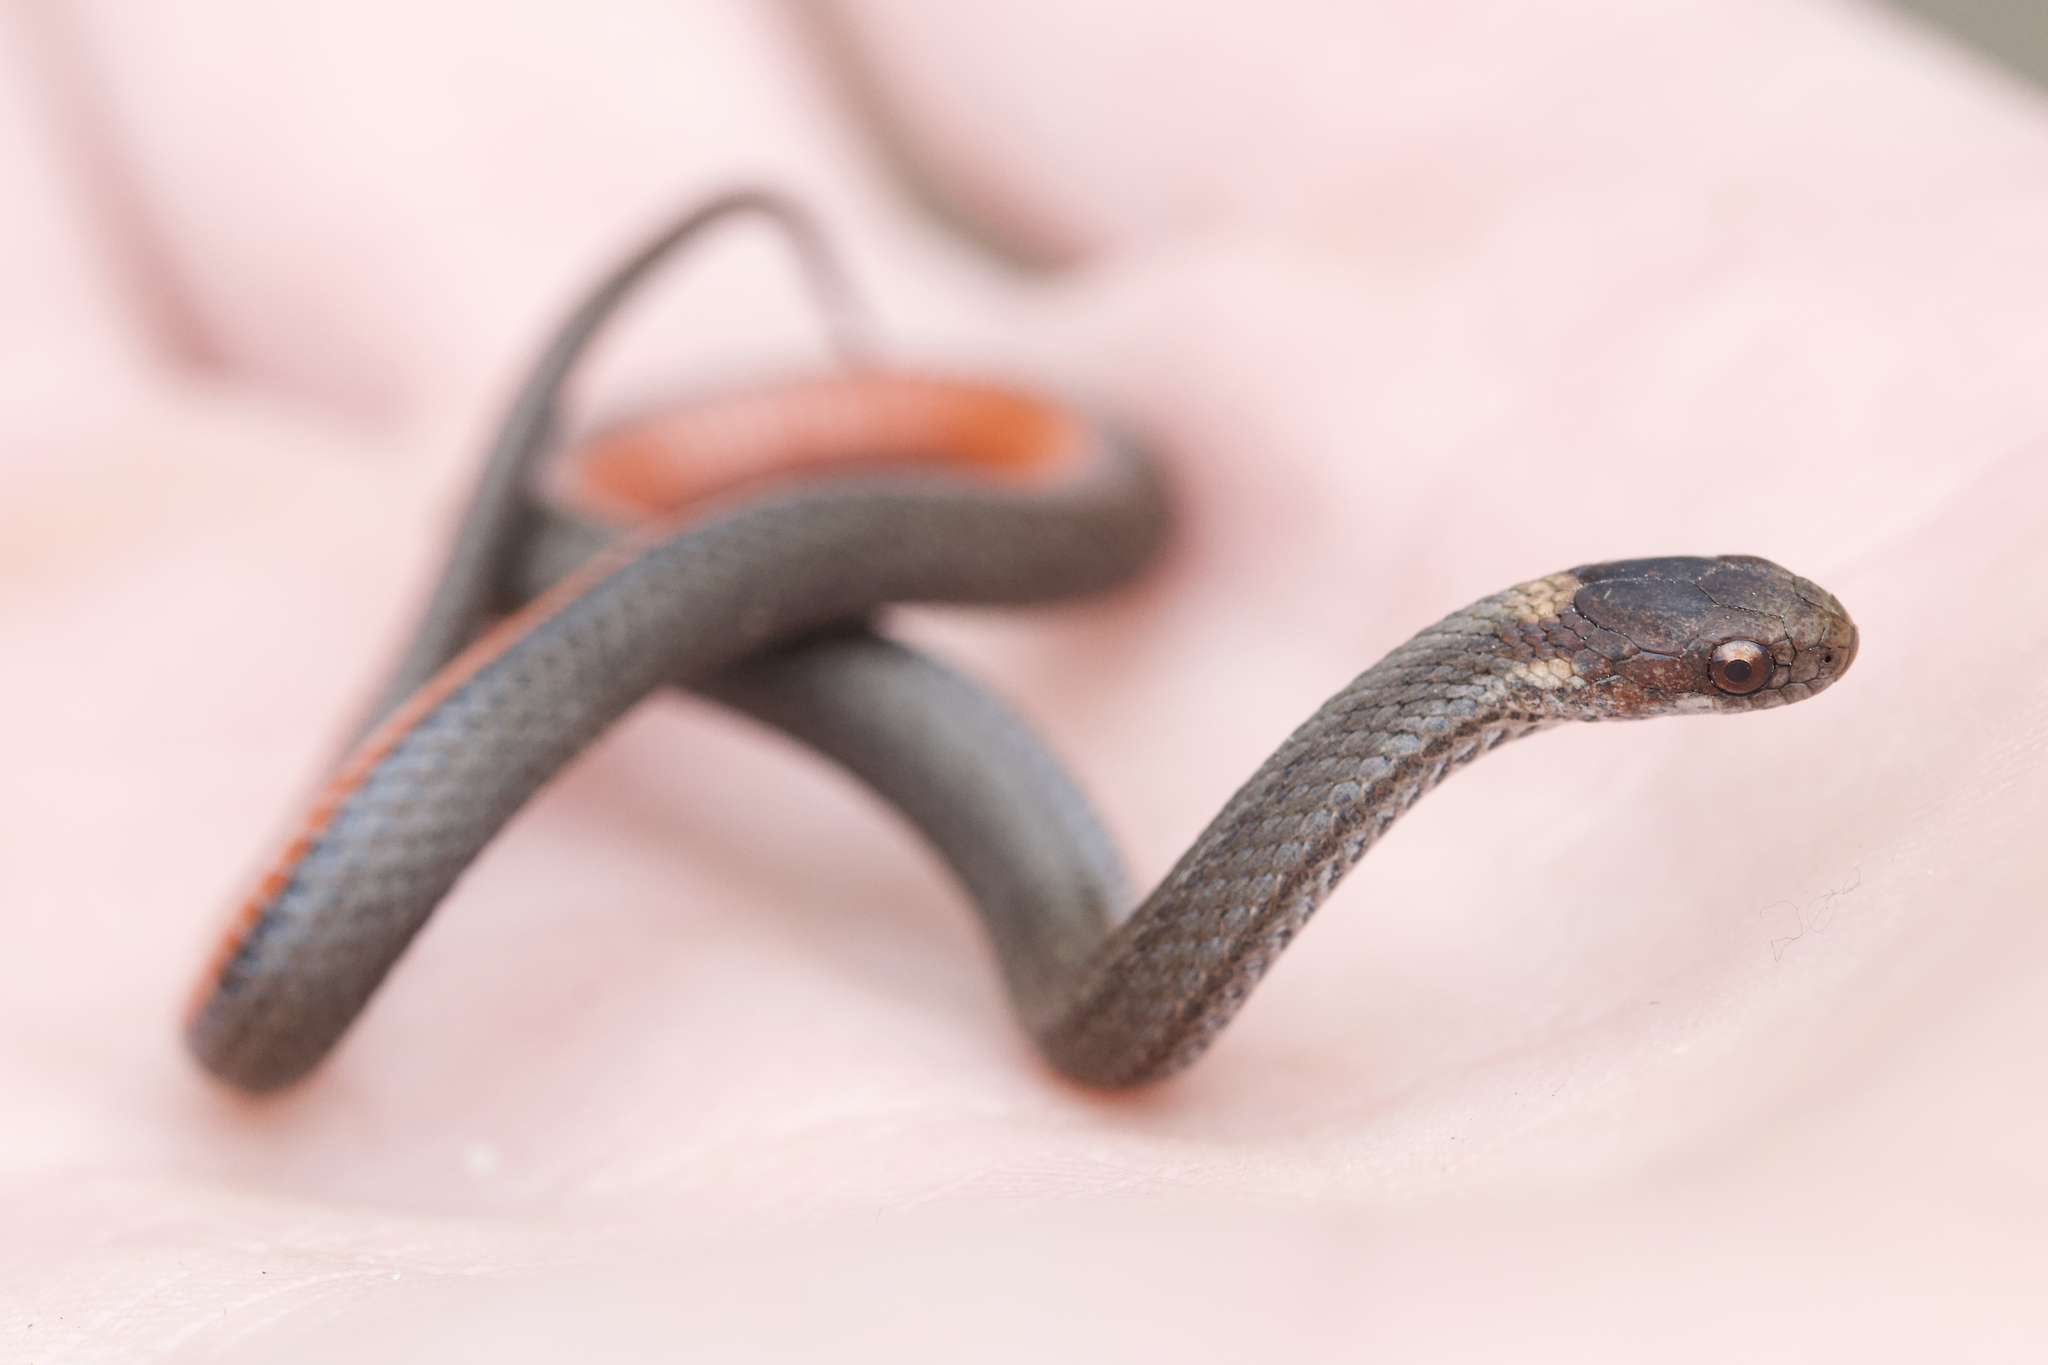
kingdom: Animalia
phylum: Chordata
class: Squamata
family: Colubridae
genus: Storeria
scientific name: Storeria occipitomaculata
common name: Redbelly snake
